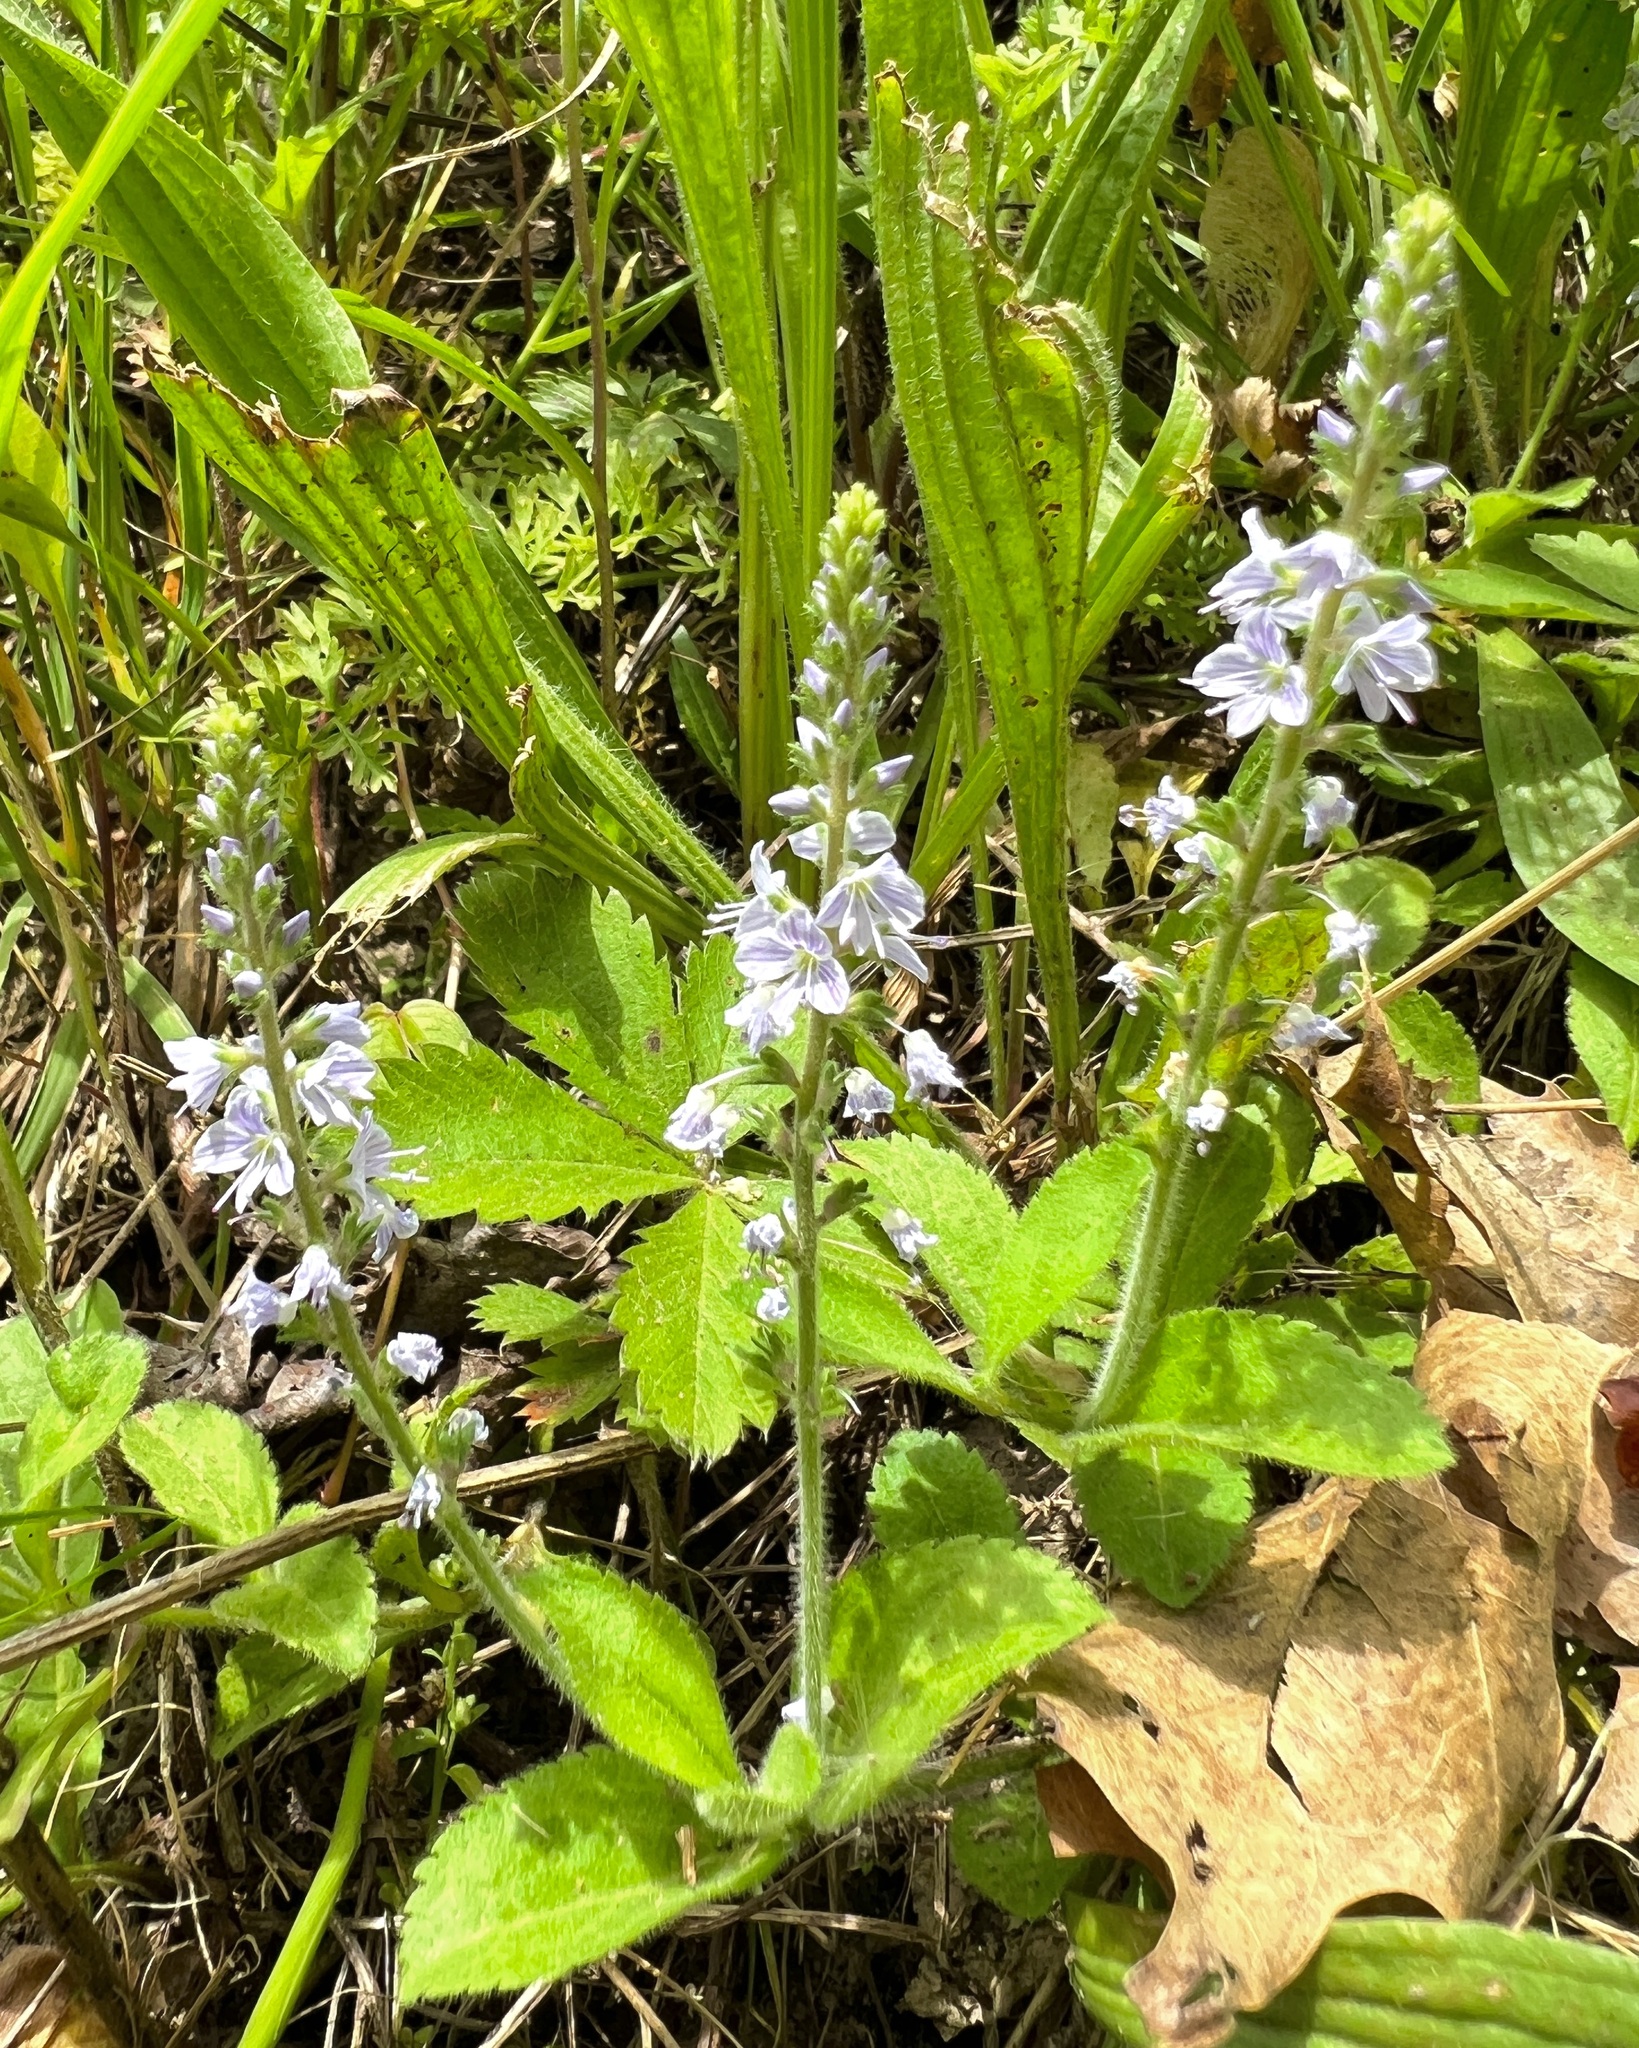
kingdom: Plantae
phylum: Tracheophyta
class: Magnoliopsida
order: Lamiales
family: Plantaginaceae
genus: Veronica
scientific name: Veronica officinalis
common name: Common speedwell
